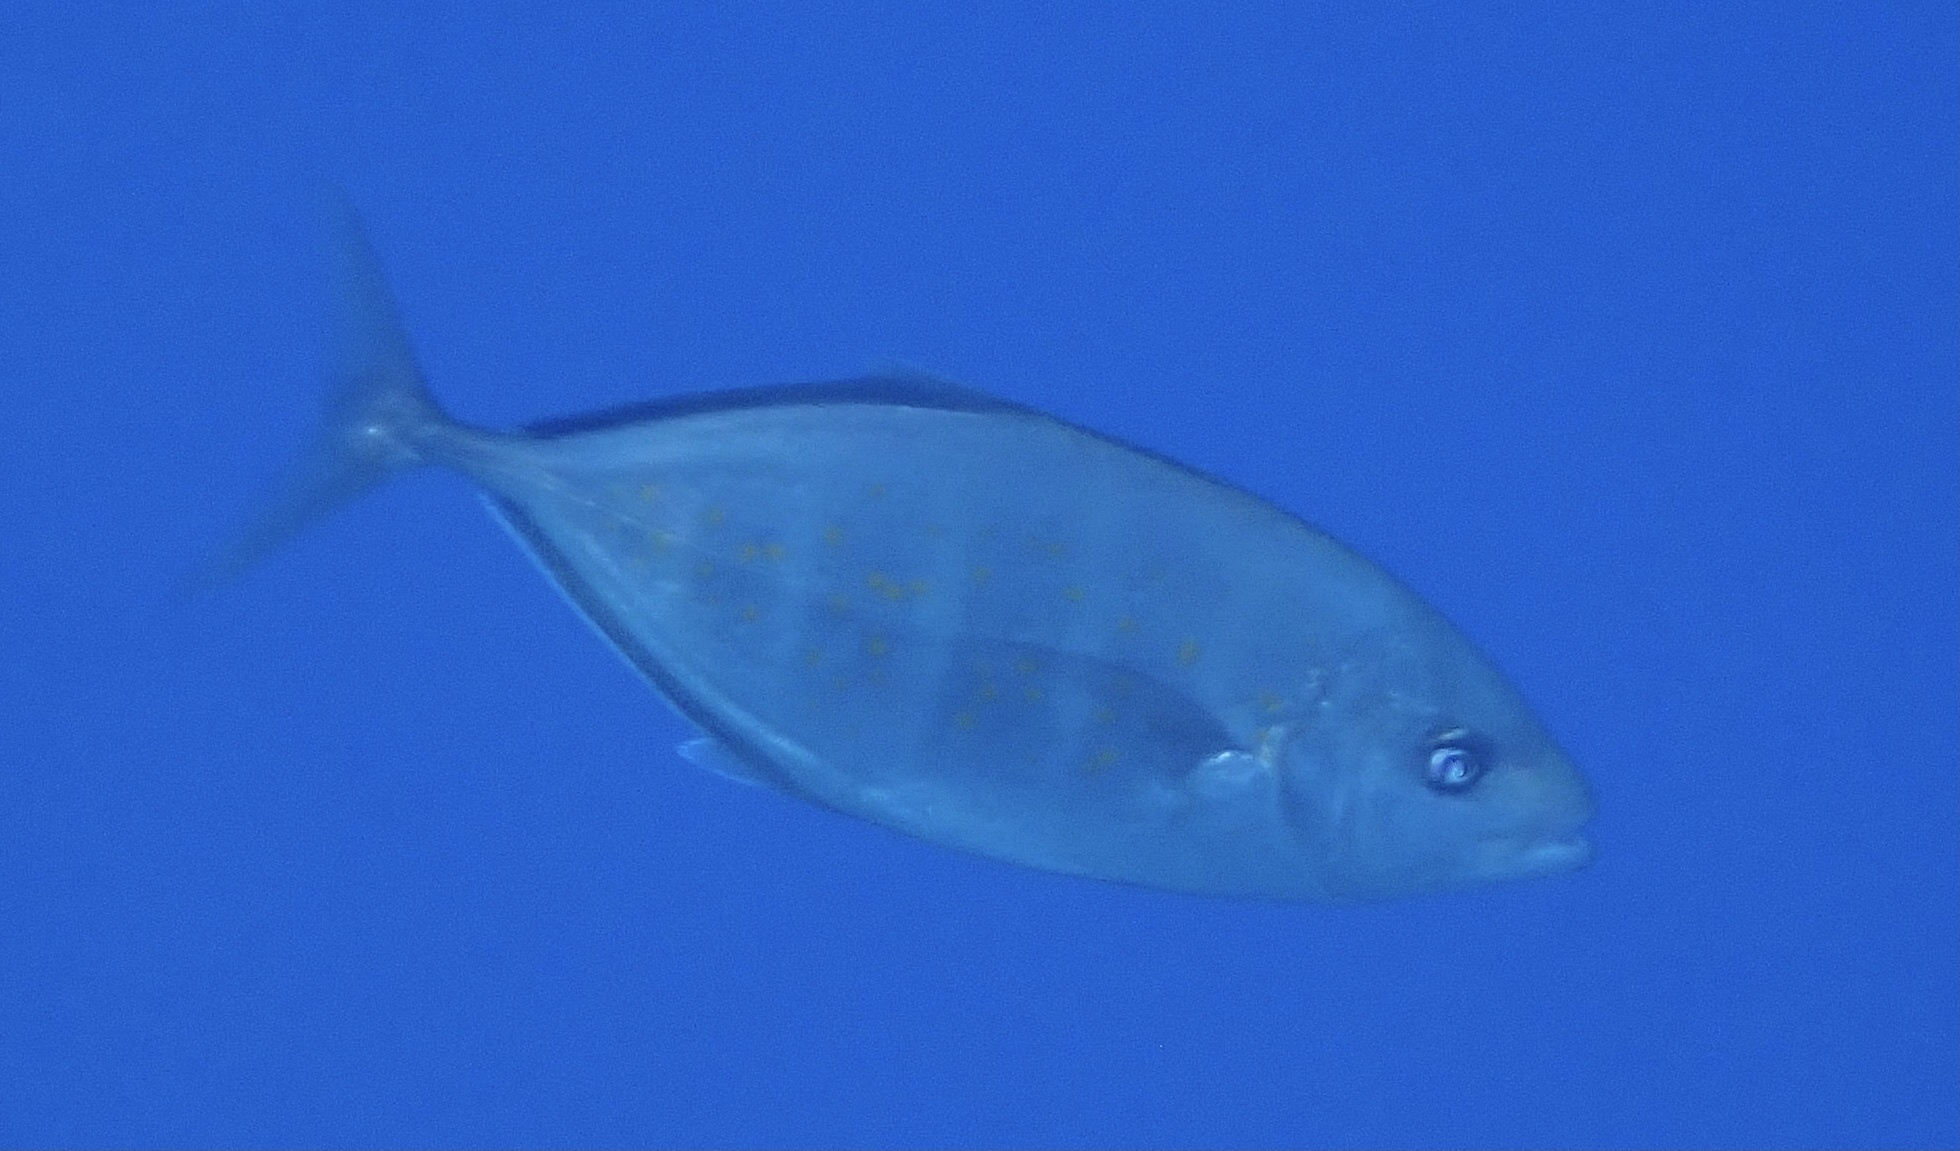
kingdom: Animalia
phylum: Chordata
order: Perciformes
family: Carangidae
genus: Flavocaranx
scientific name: Flavocaranx bajad
